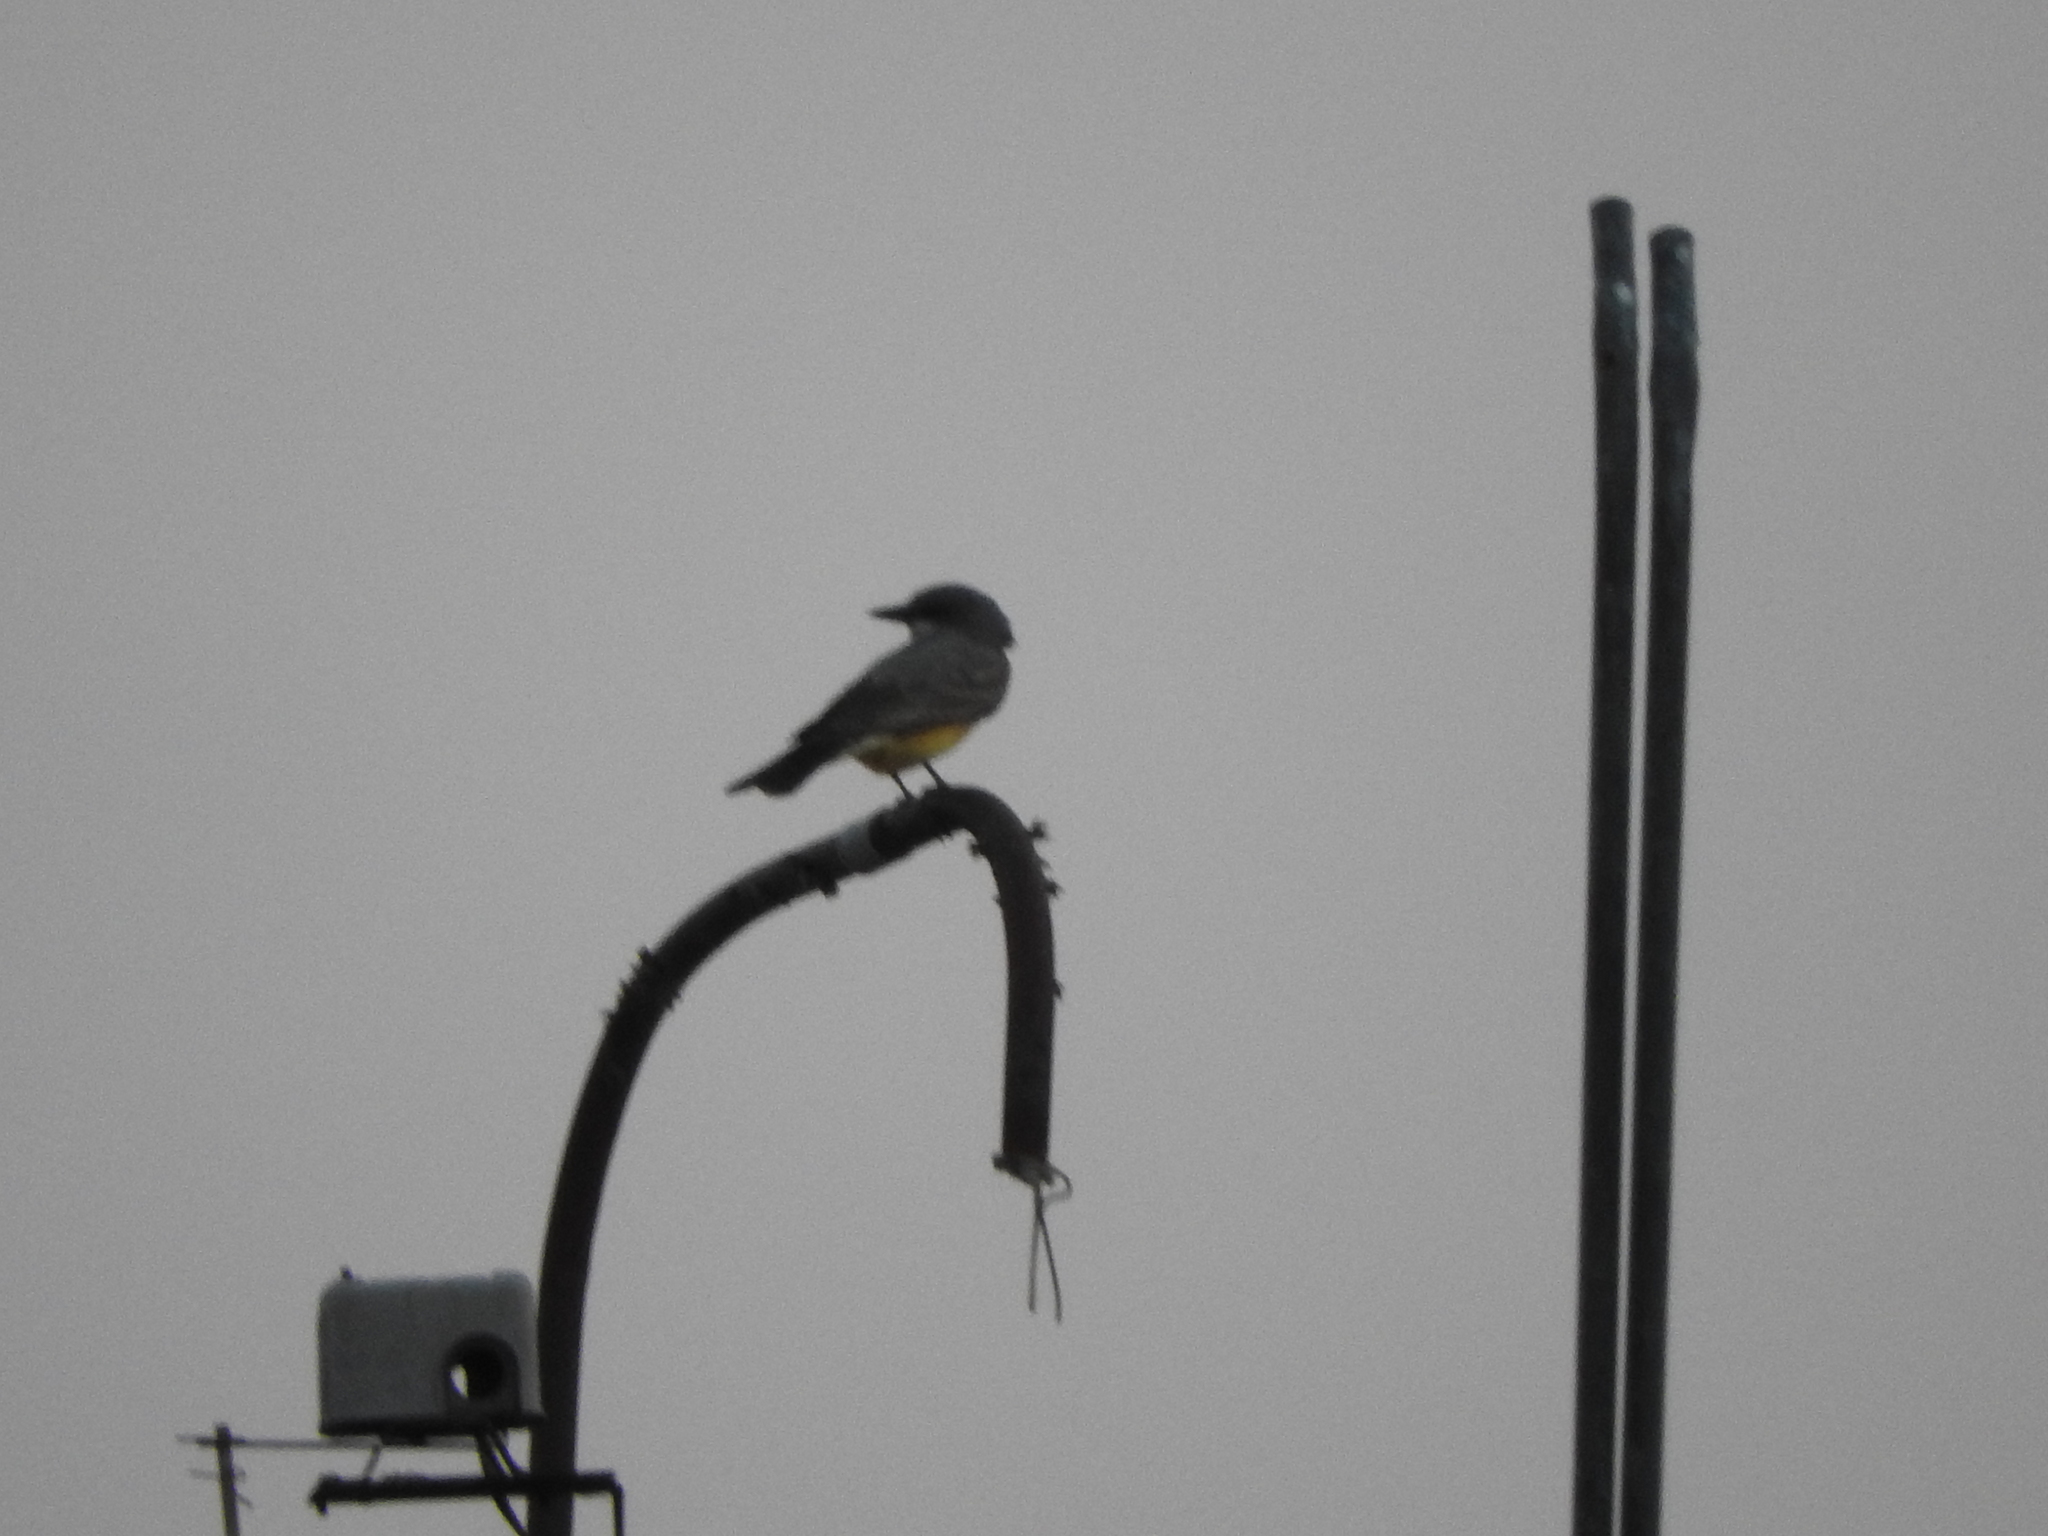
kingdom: Animalia
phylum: Chordata
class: Aves
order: Passeriformes
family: Tyrannidae
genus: Tyrannus
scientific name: Tyrannus vociferans
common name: Cassin's kingbird
